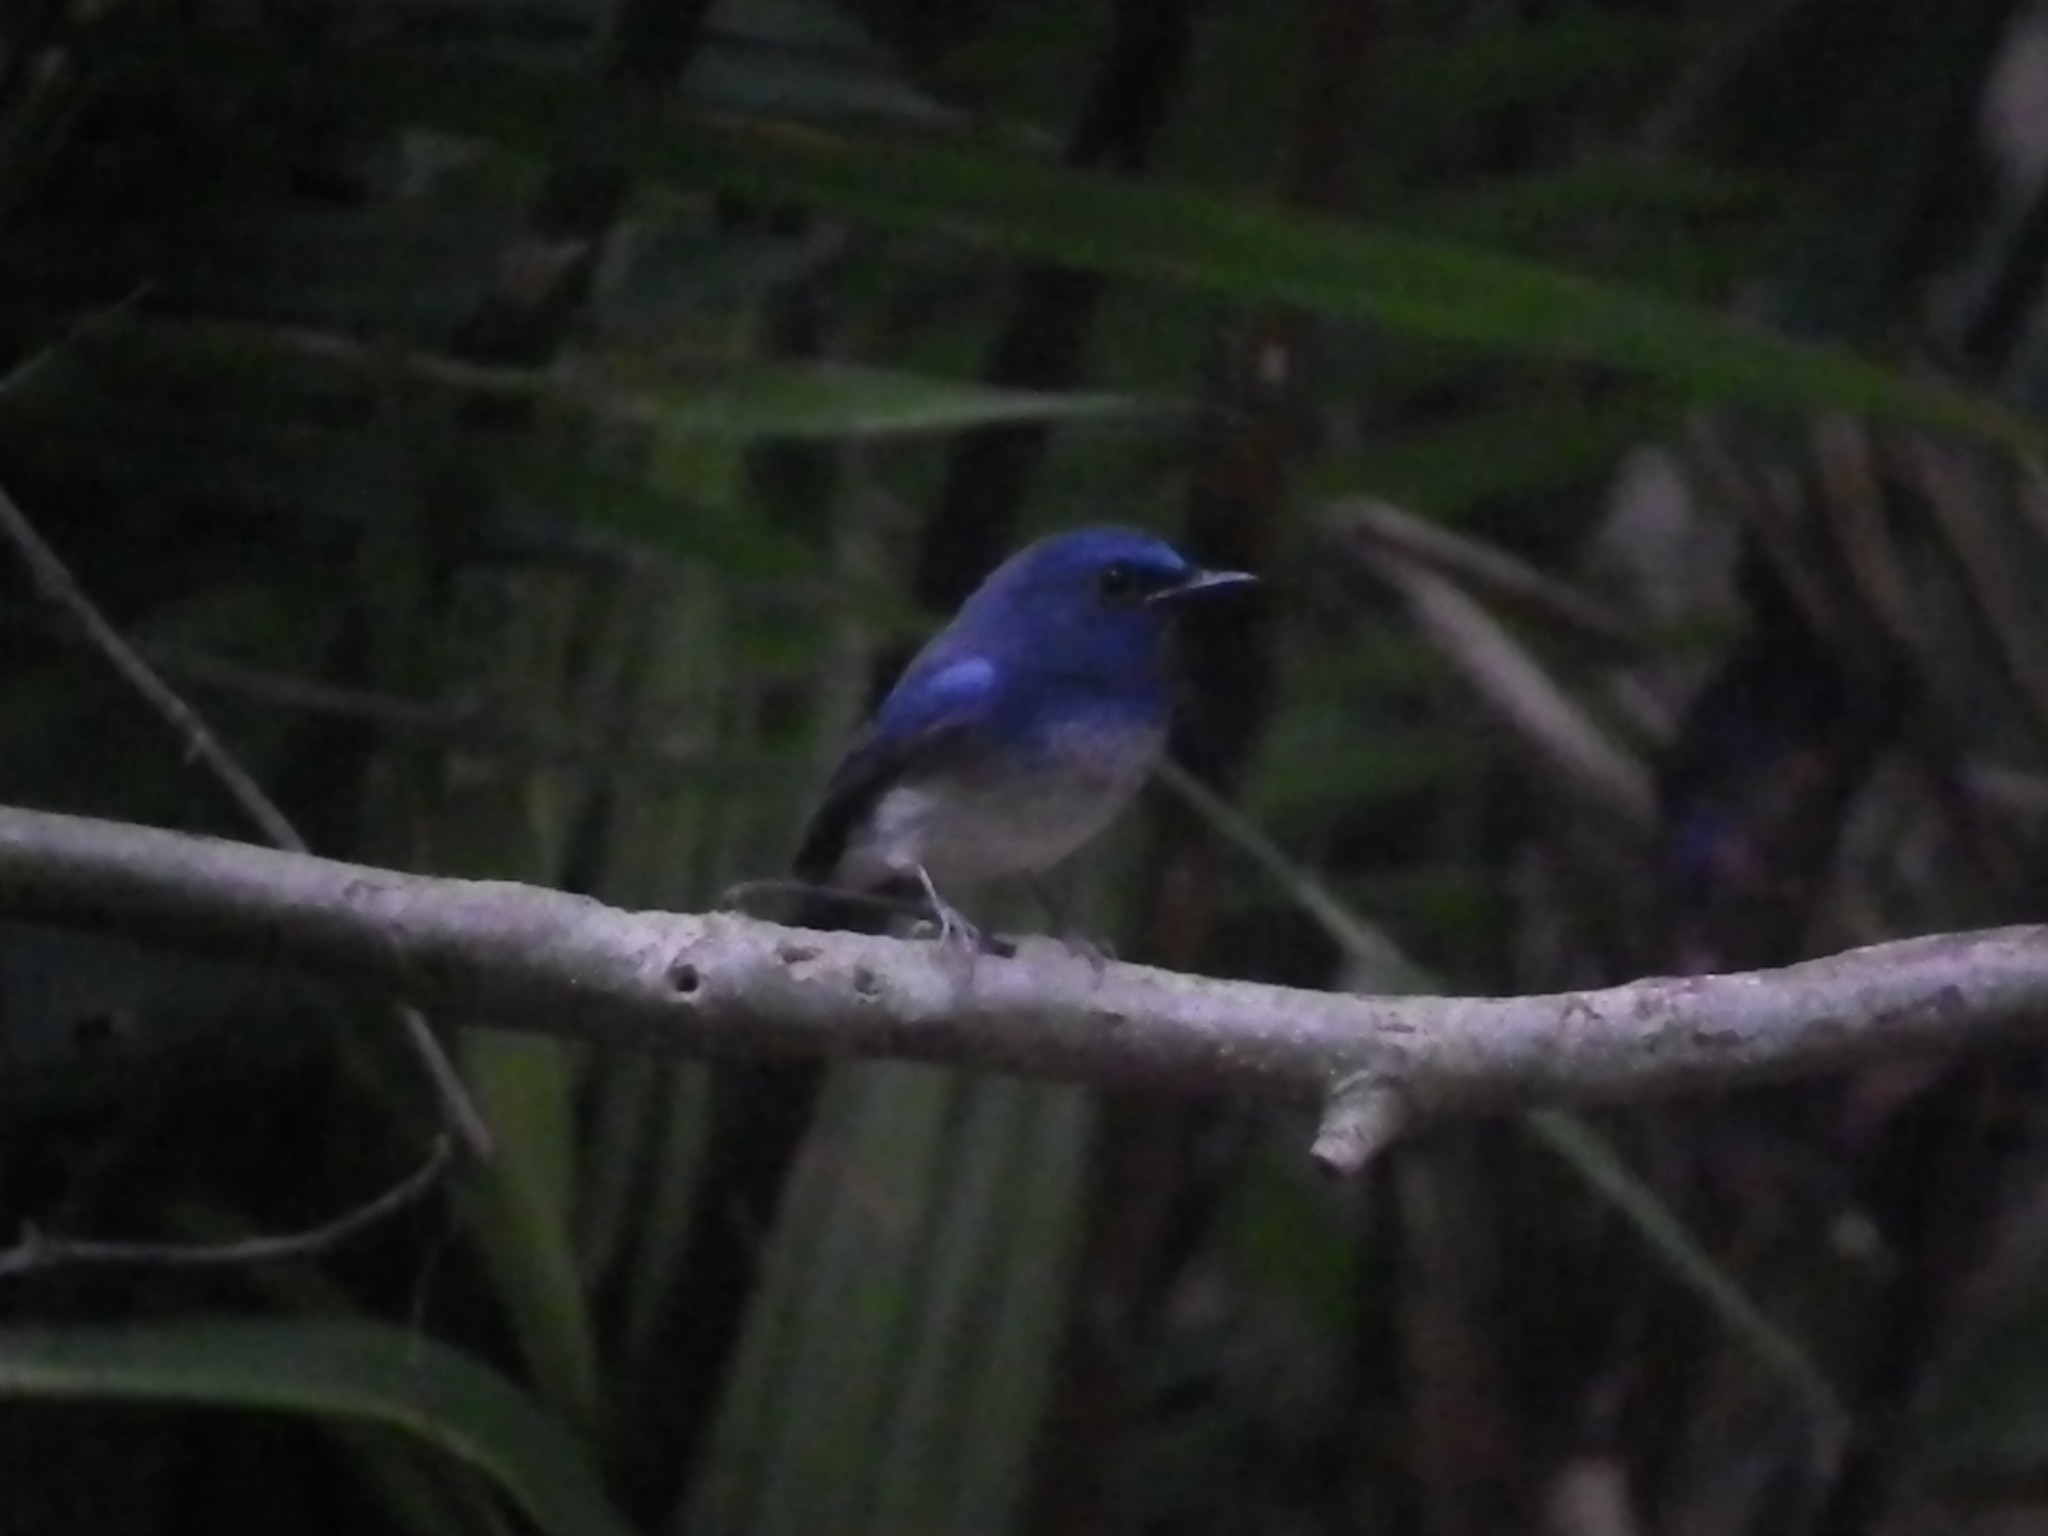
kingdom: Animalia
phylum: Chordata
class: Aves
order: Passeriformes
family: Muscicapidae
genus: Cyornis
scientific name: Cyornis hainanus
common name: Hainan blue flycatcher
